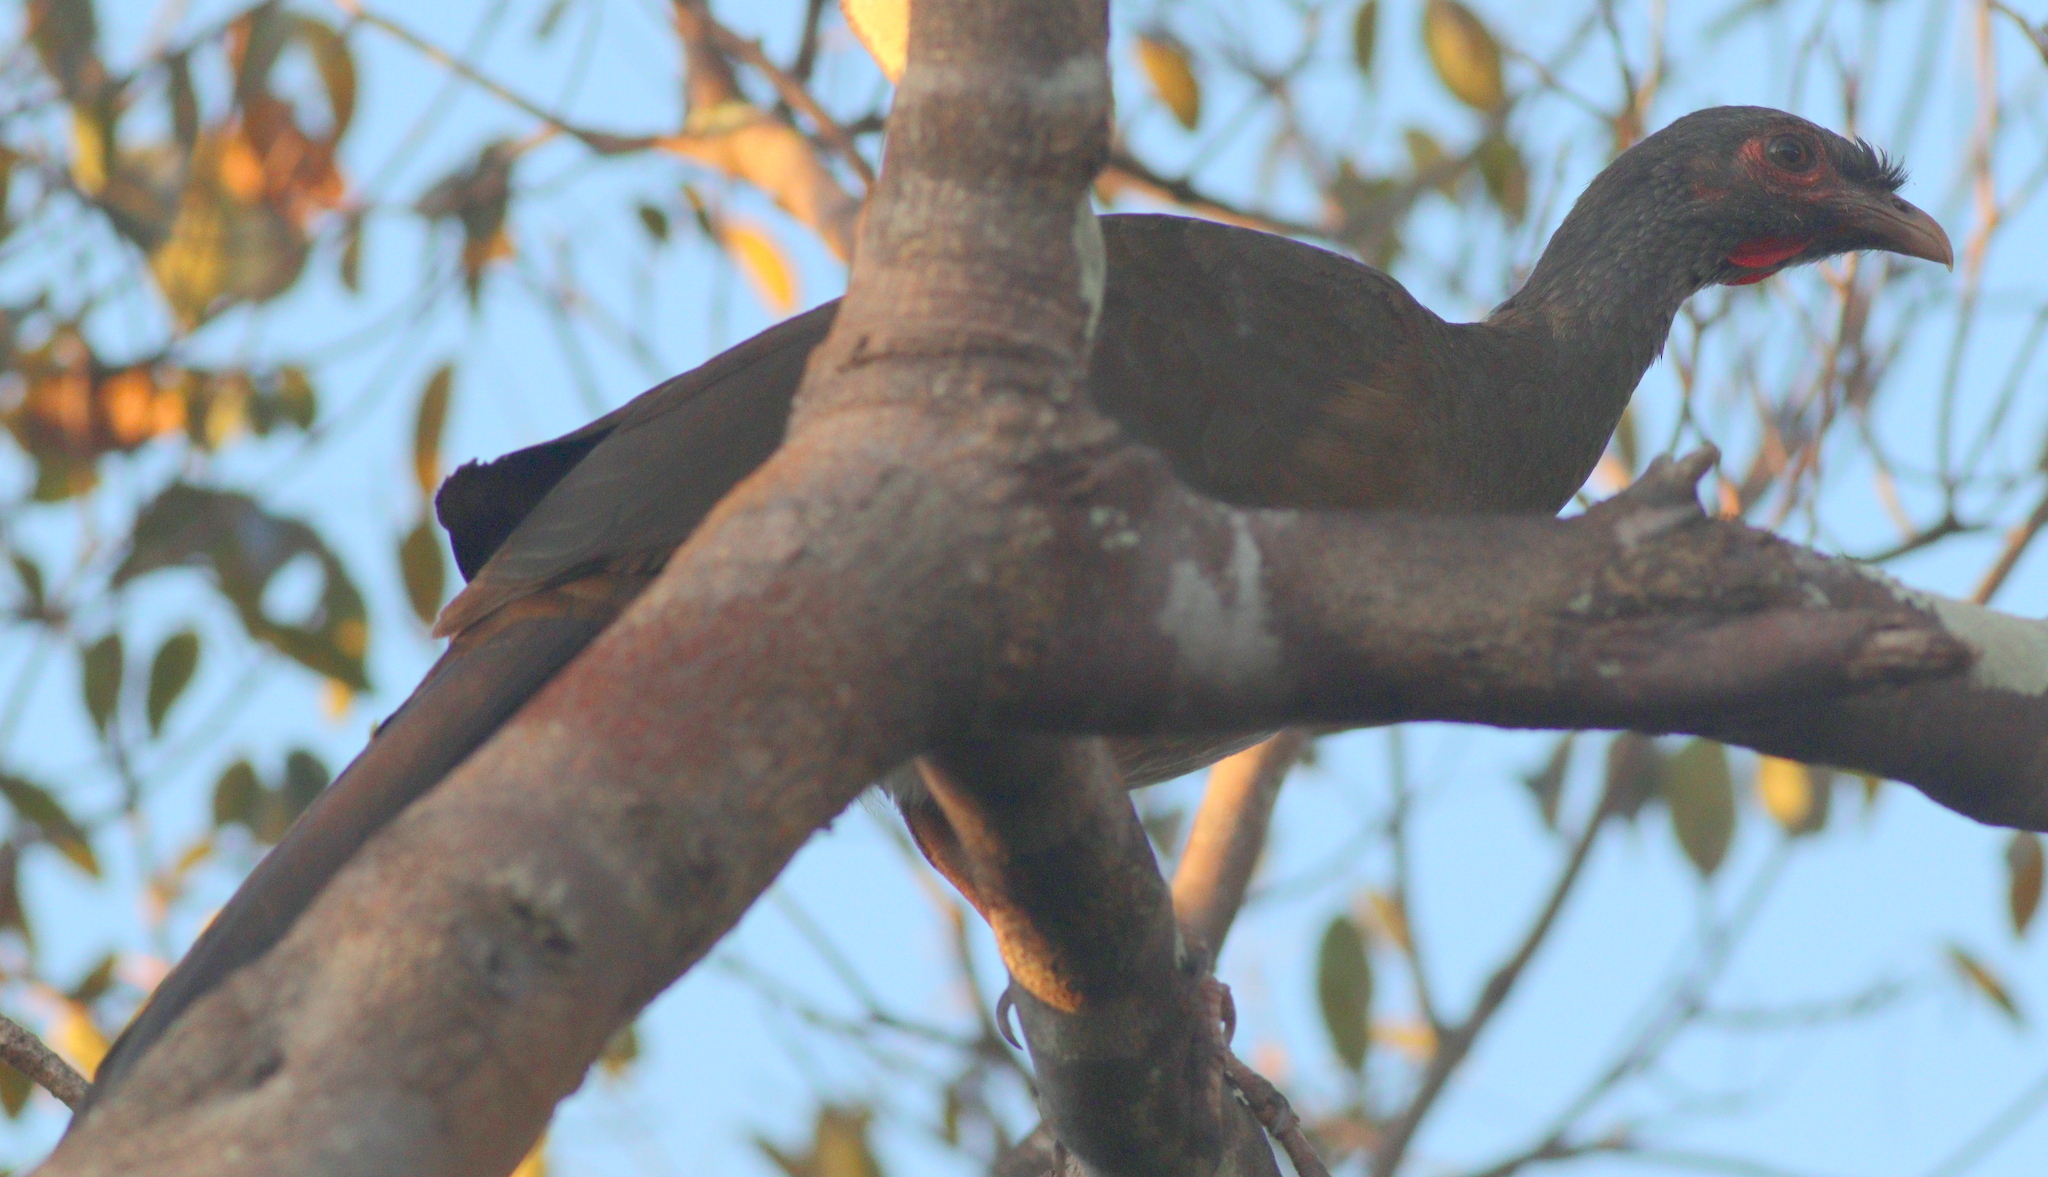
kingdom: Animalia
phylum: Chordata
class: Aves
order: Galliformes
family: Cracidae
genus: Ortalis
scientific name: Ortalis canicollis
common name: Chaco chachalaca
